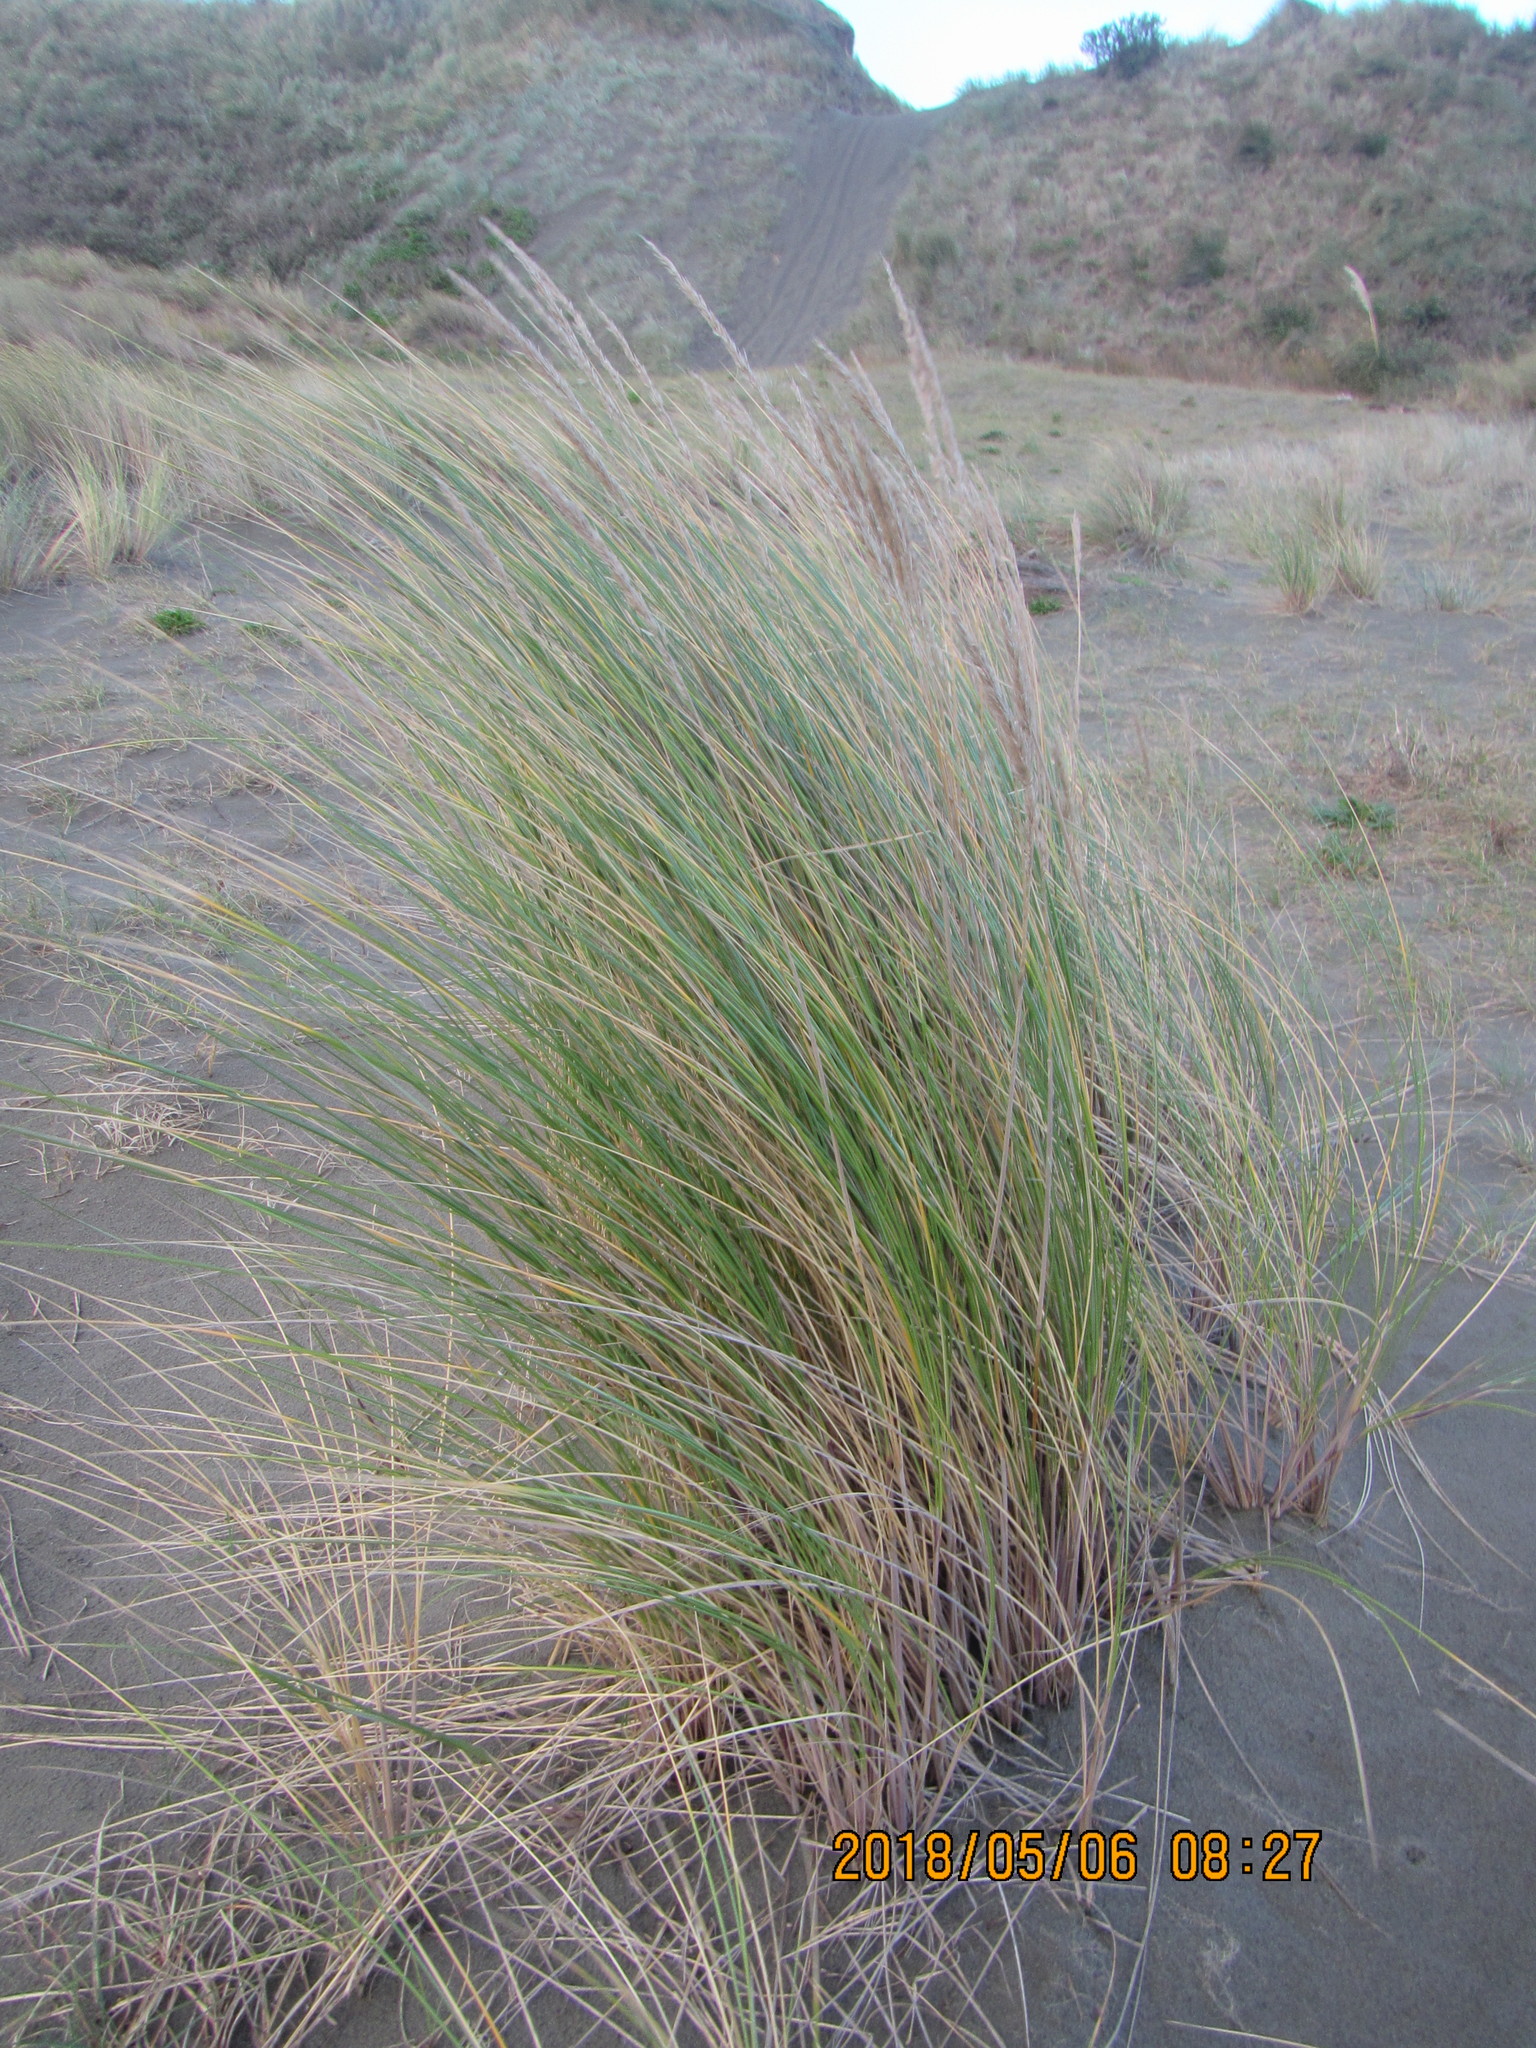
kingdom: Plantae
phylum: Tracheophyta
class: Liliopsida
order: Poales
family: Poaceae
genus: Calamagrostis
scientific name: Calamagrostis arenaria
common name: European beachgrass
